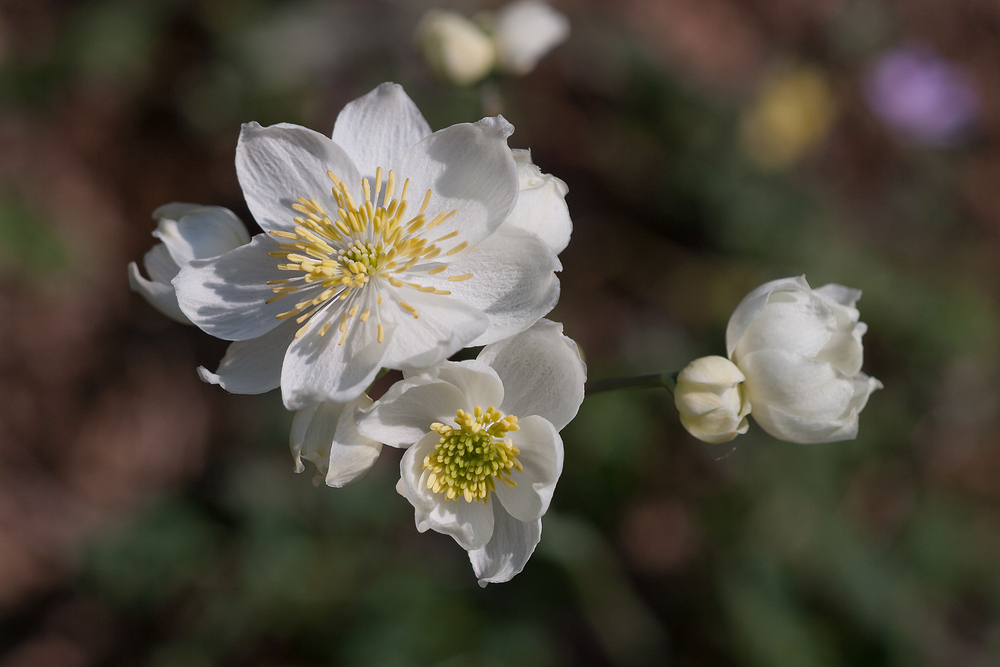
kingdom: Plantae
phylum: Tracheophyta
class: Magnoliopsida
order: Ranunculales
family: Ranunculaceae
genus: Thalictrum
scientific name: Thalictrum tuberosum
